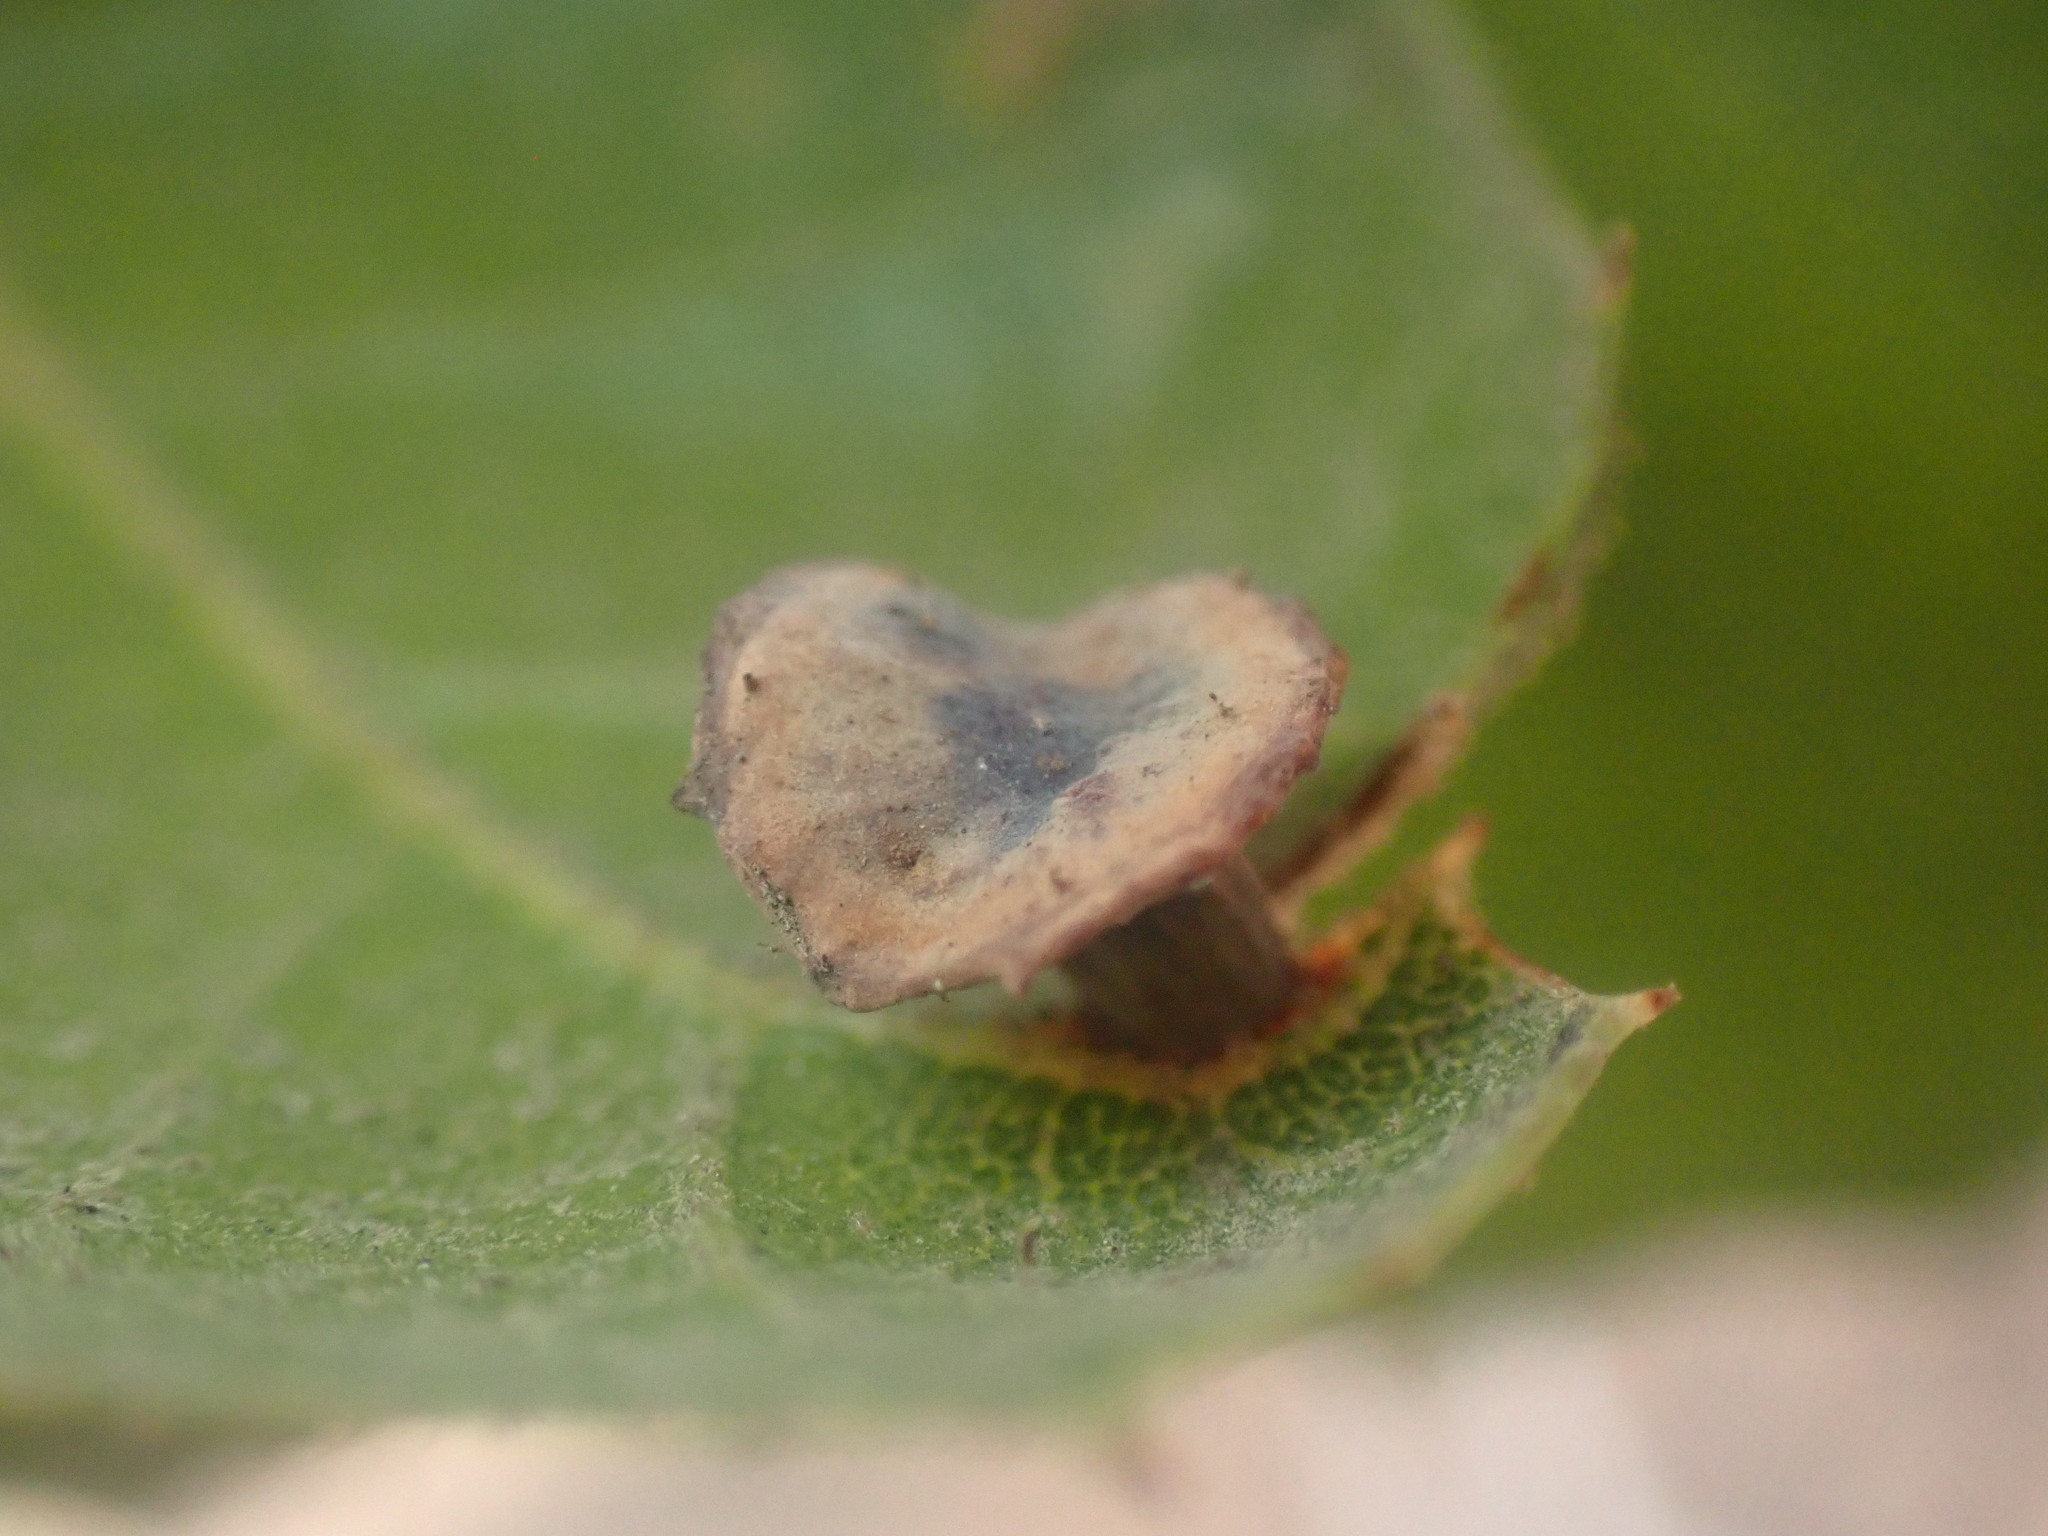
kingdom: Animalia
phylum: Arthropoda
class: Insecta
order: Hymenoptera
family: Cynipidae
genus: Amphibolips
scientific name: Amphibolips quercuspomiformis
